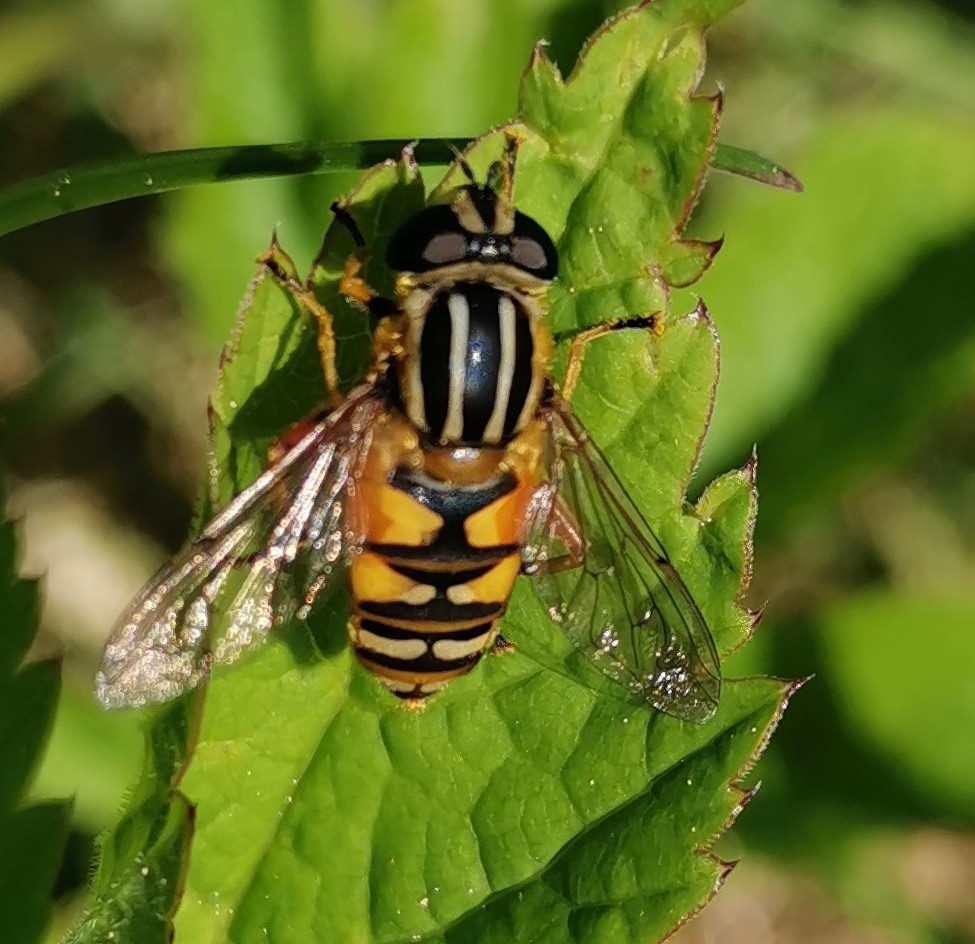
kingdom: Animalia
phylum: Arthropoda
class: Insecta
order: Diptera
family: Syrphidae
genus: Helophilus
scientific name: Helophilus pendulus
